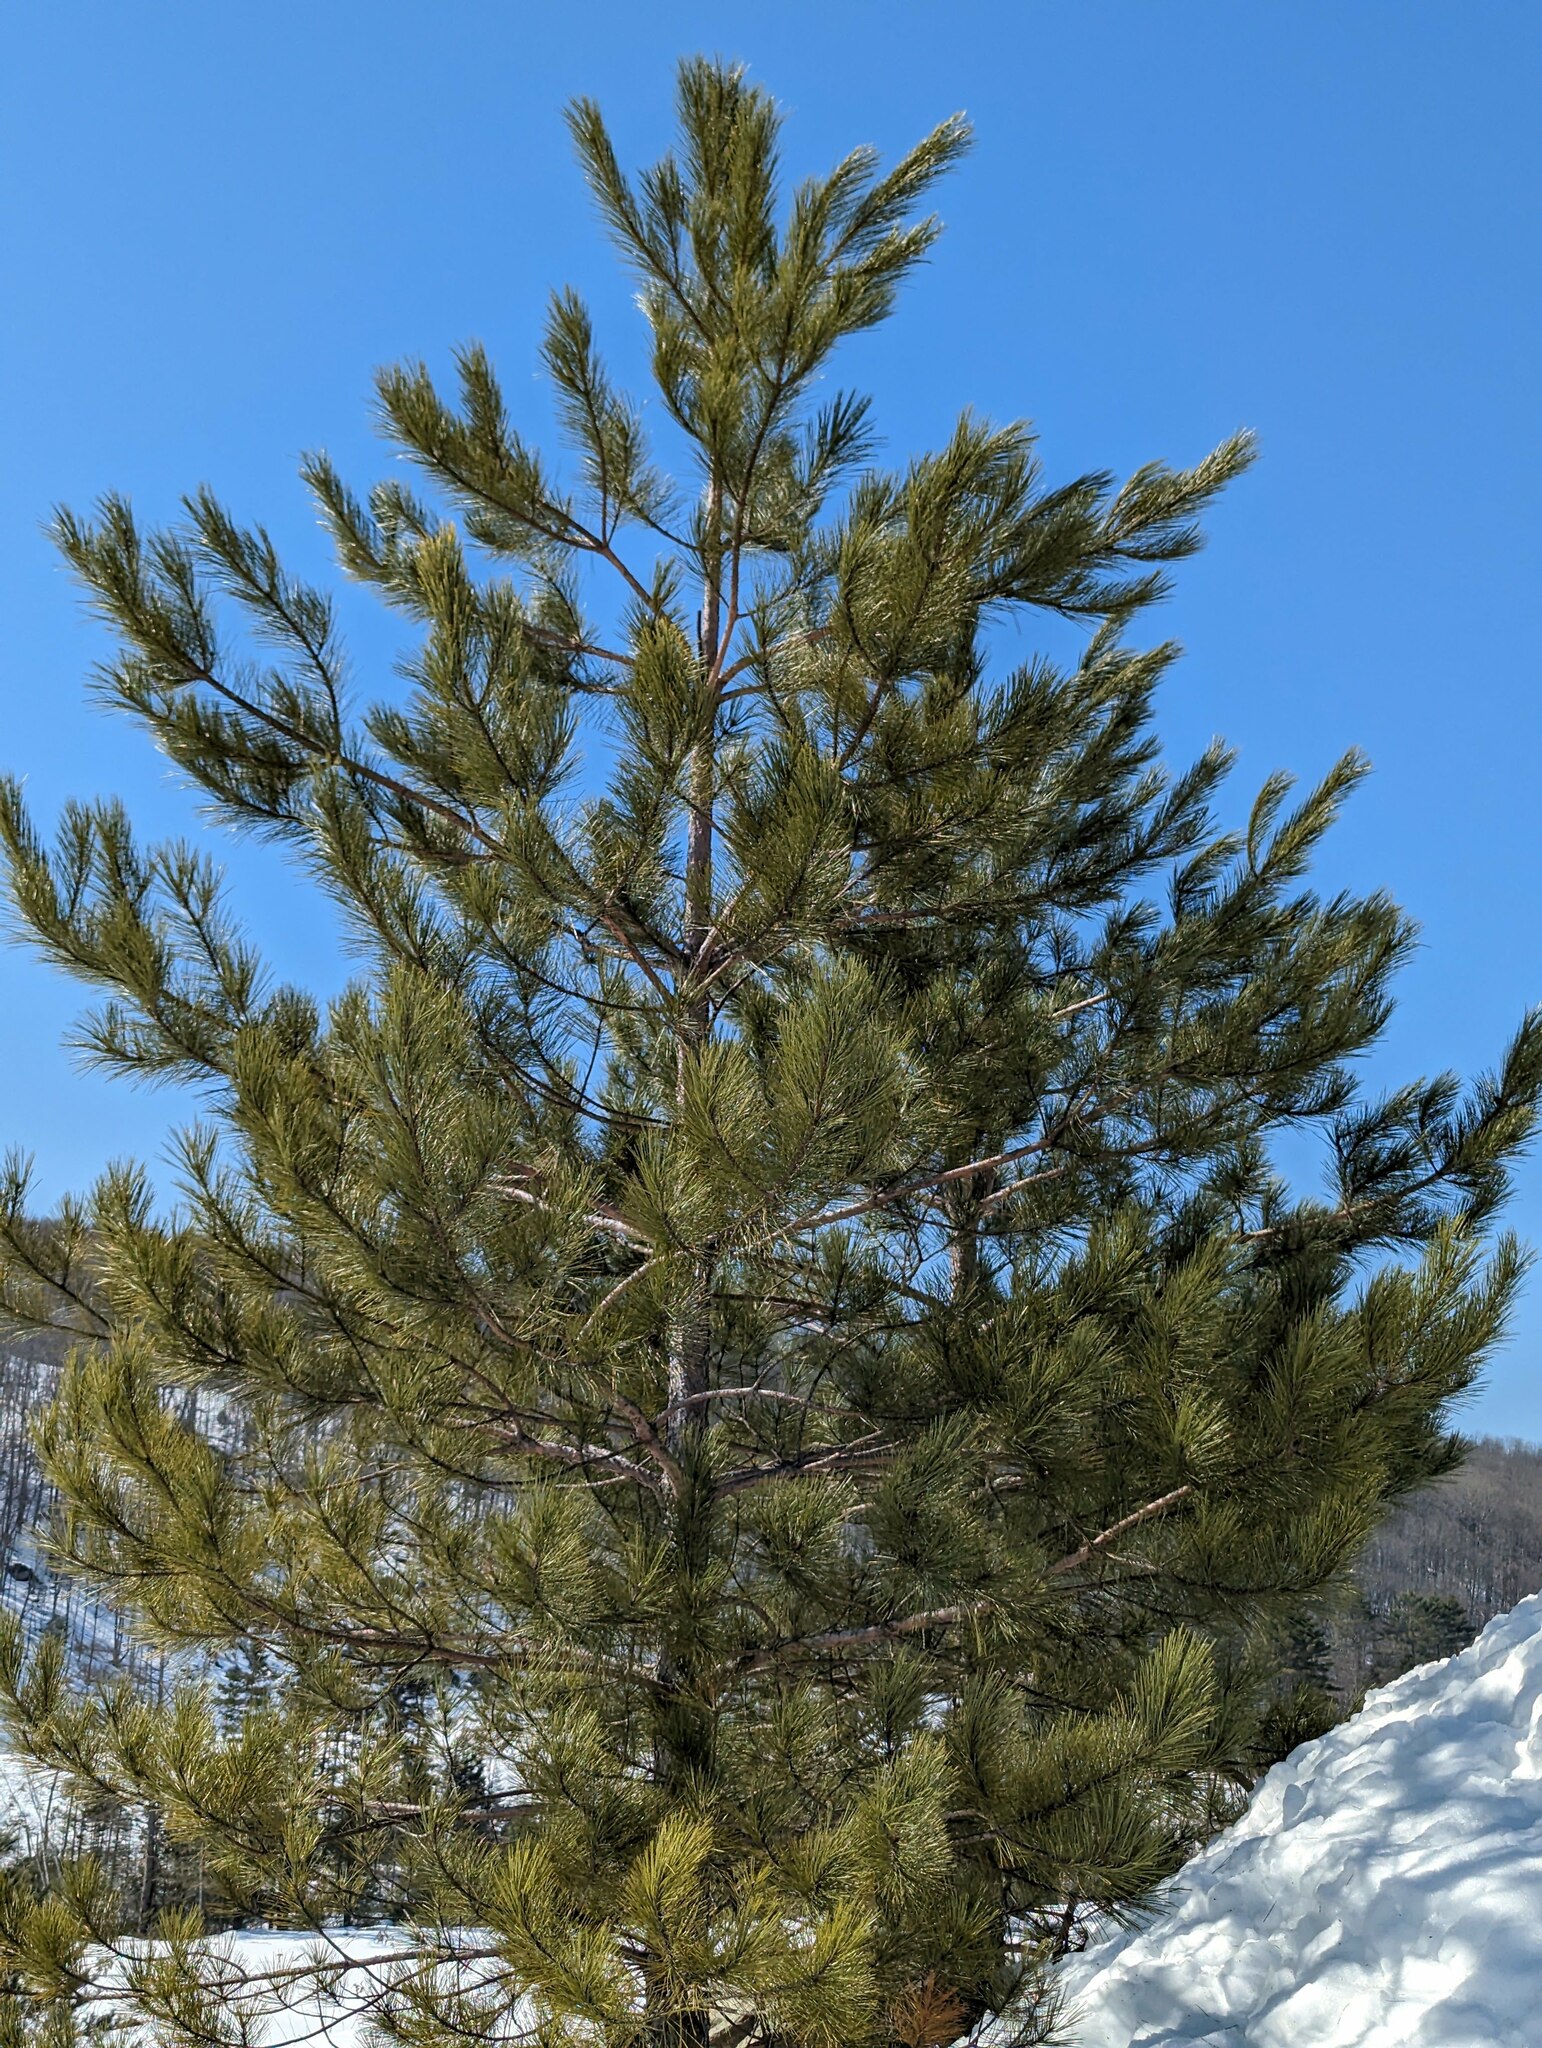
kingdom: Plantae
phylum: Tracheophyta
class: Pinopsida
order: Pinales
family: Pinaceae
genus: Pinus
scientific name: Pinus strobus
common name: Weymouth pine
